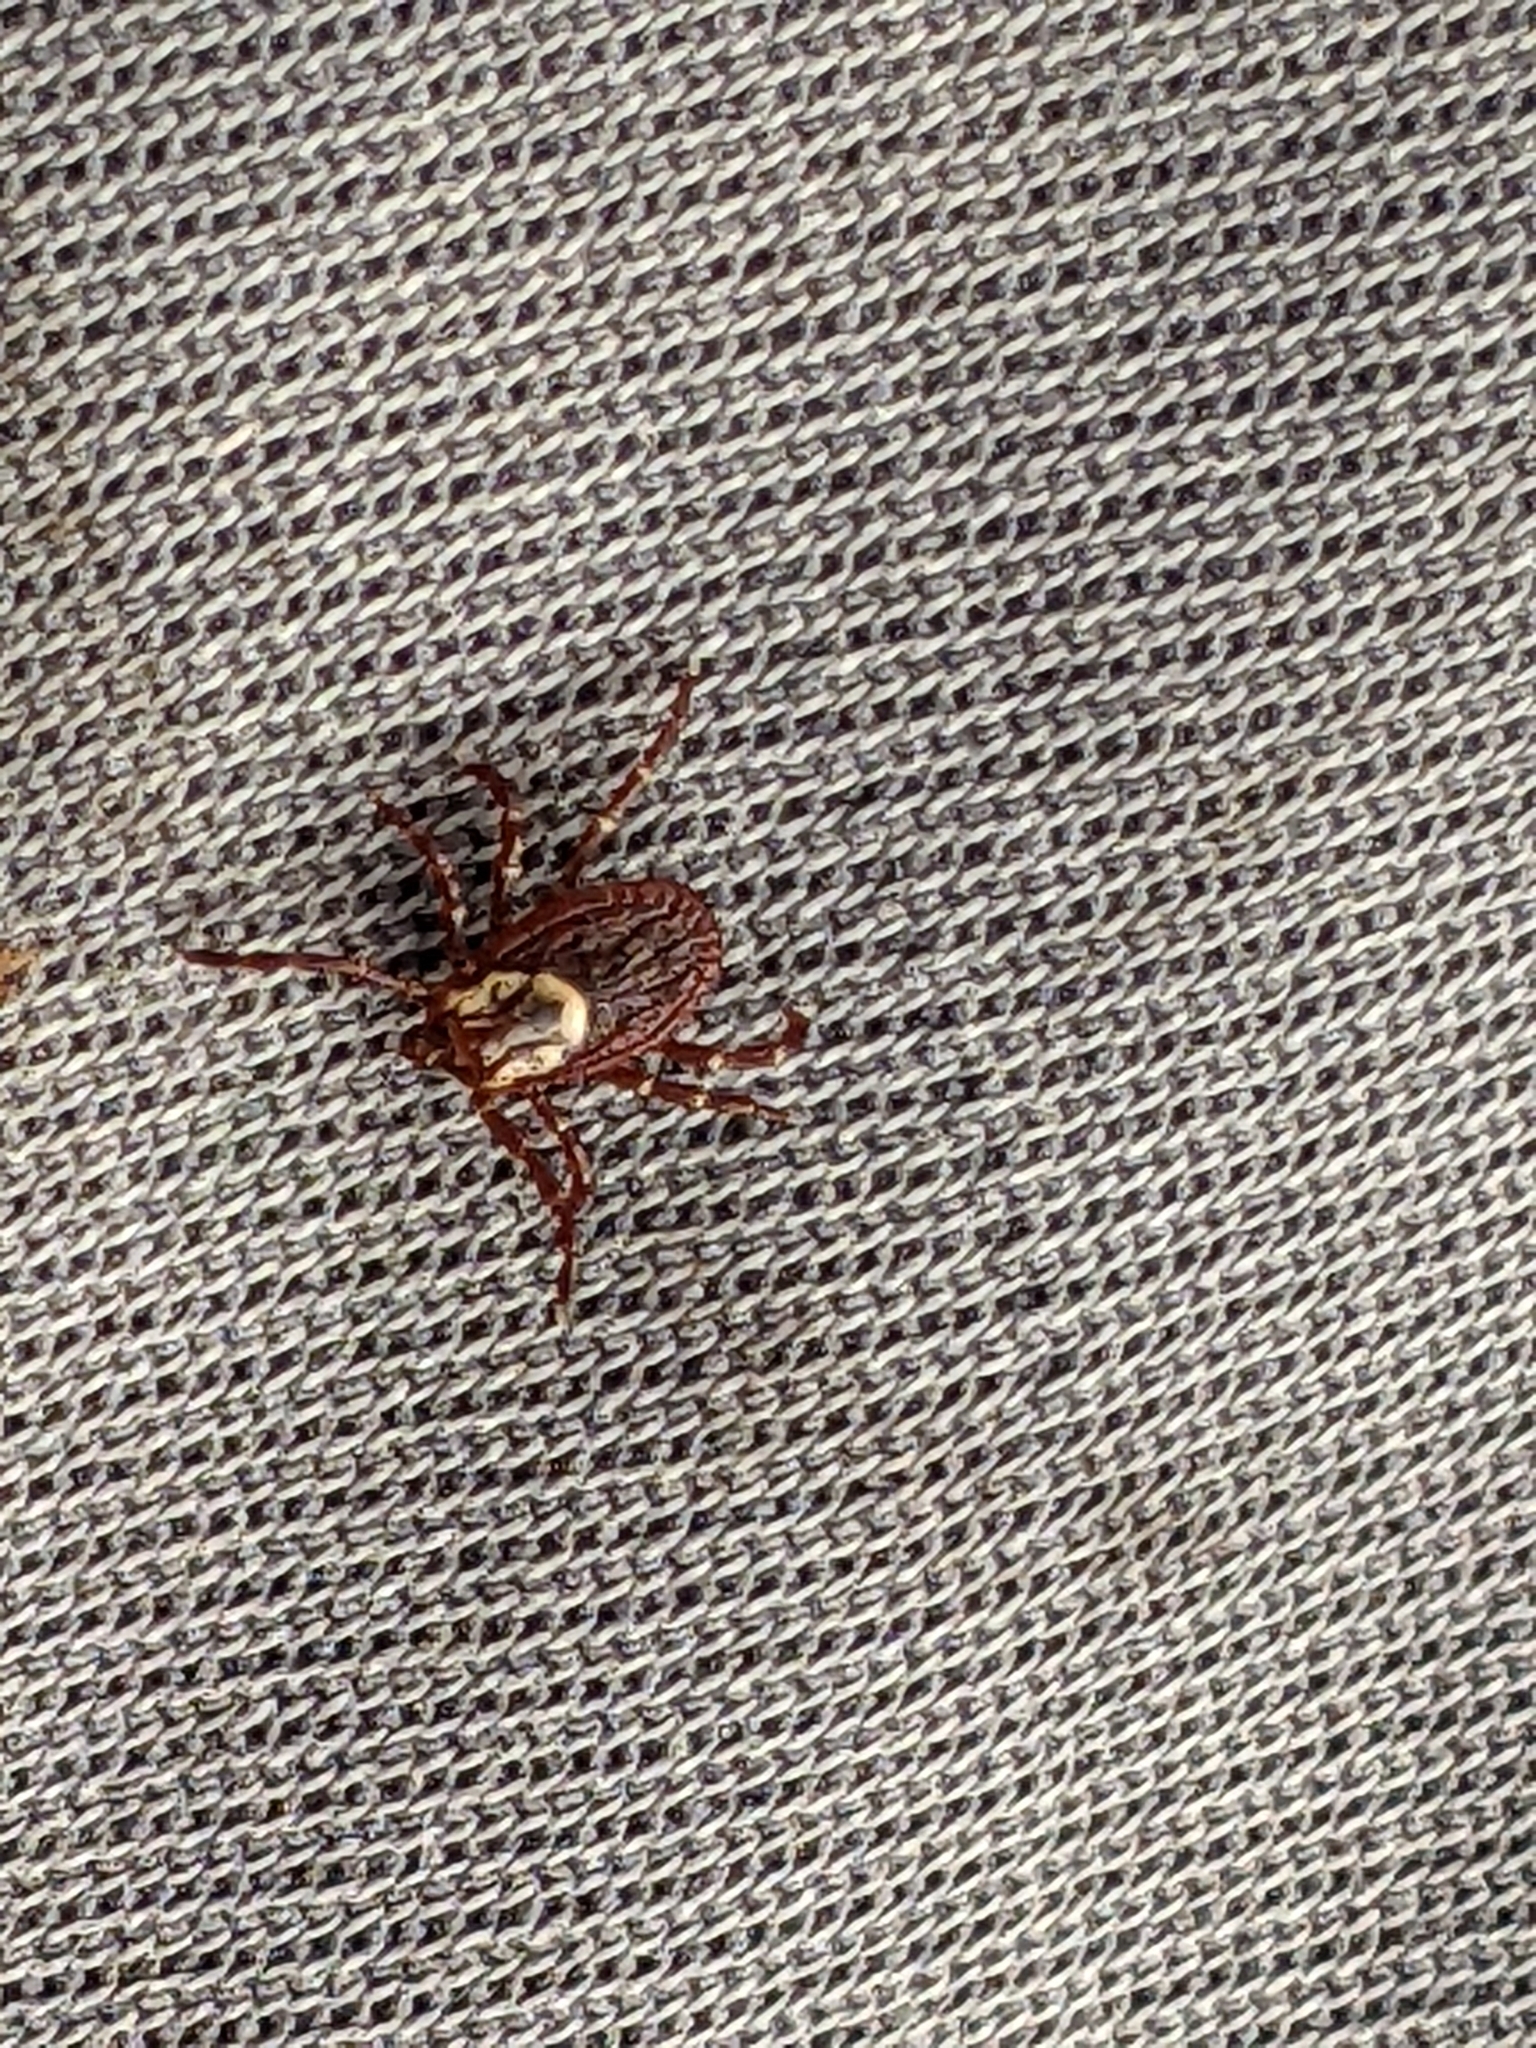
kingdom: Animalia
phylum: Arthropoda
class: Arachnida
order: Ixodida
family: Ixodidae
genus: Dermacentor
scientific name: Dermacentor variabilis
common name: American dog tick
